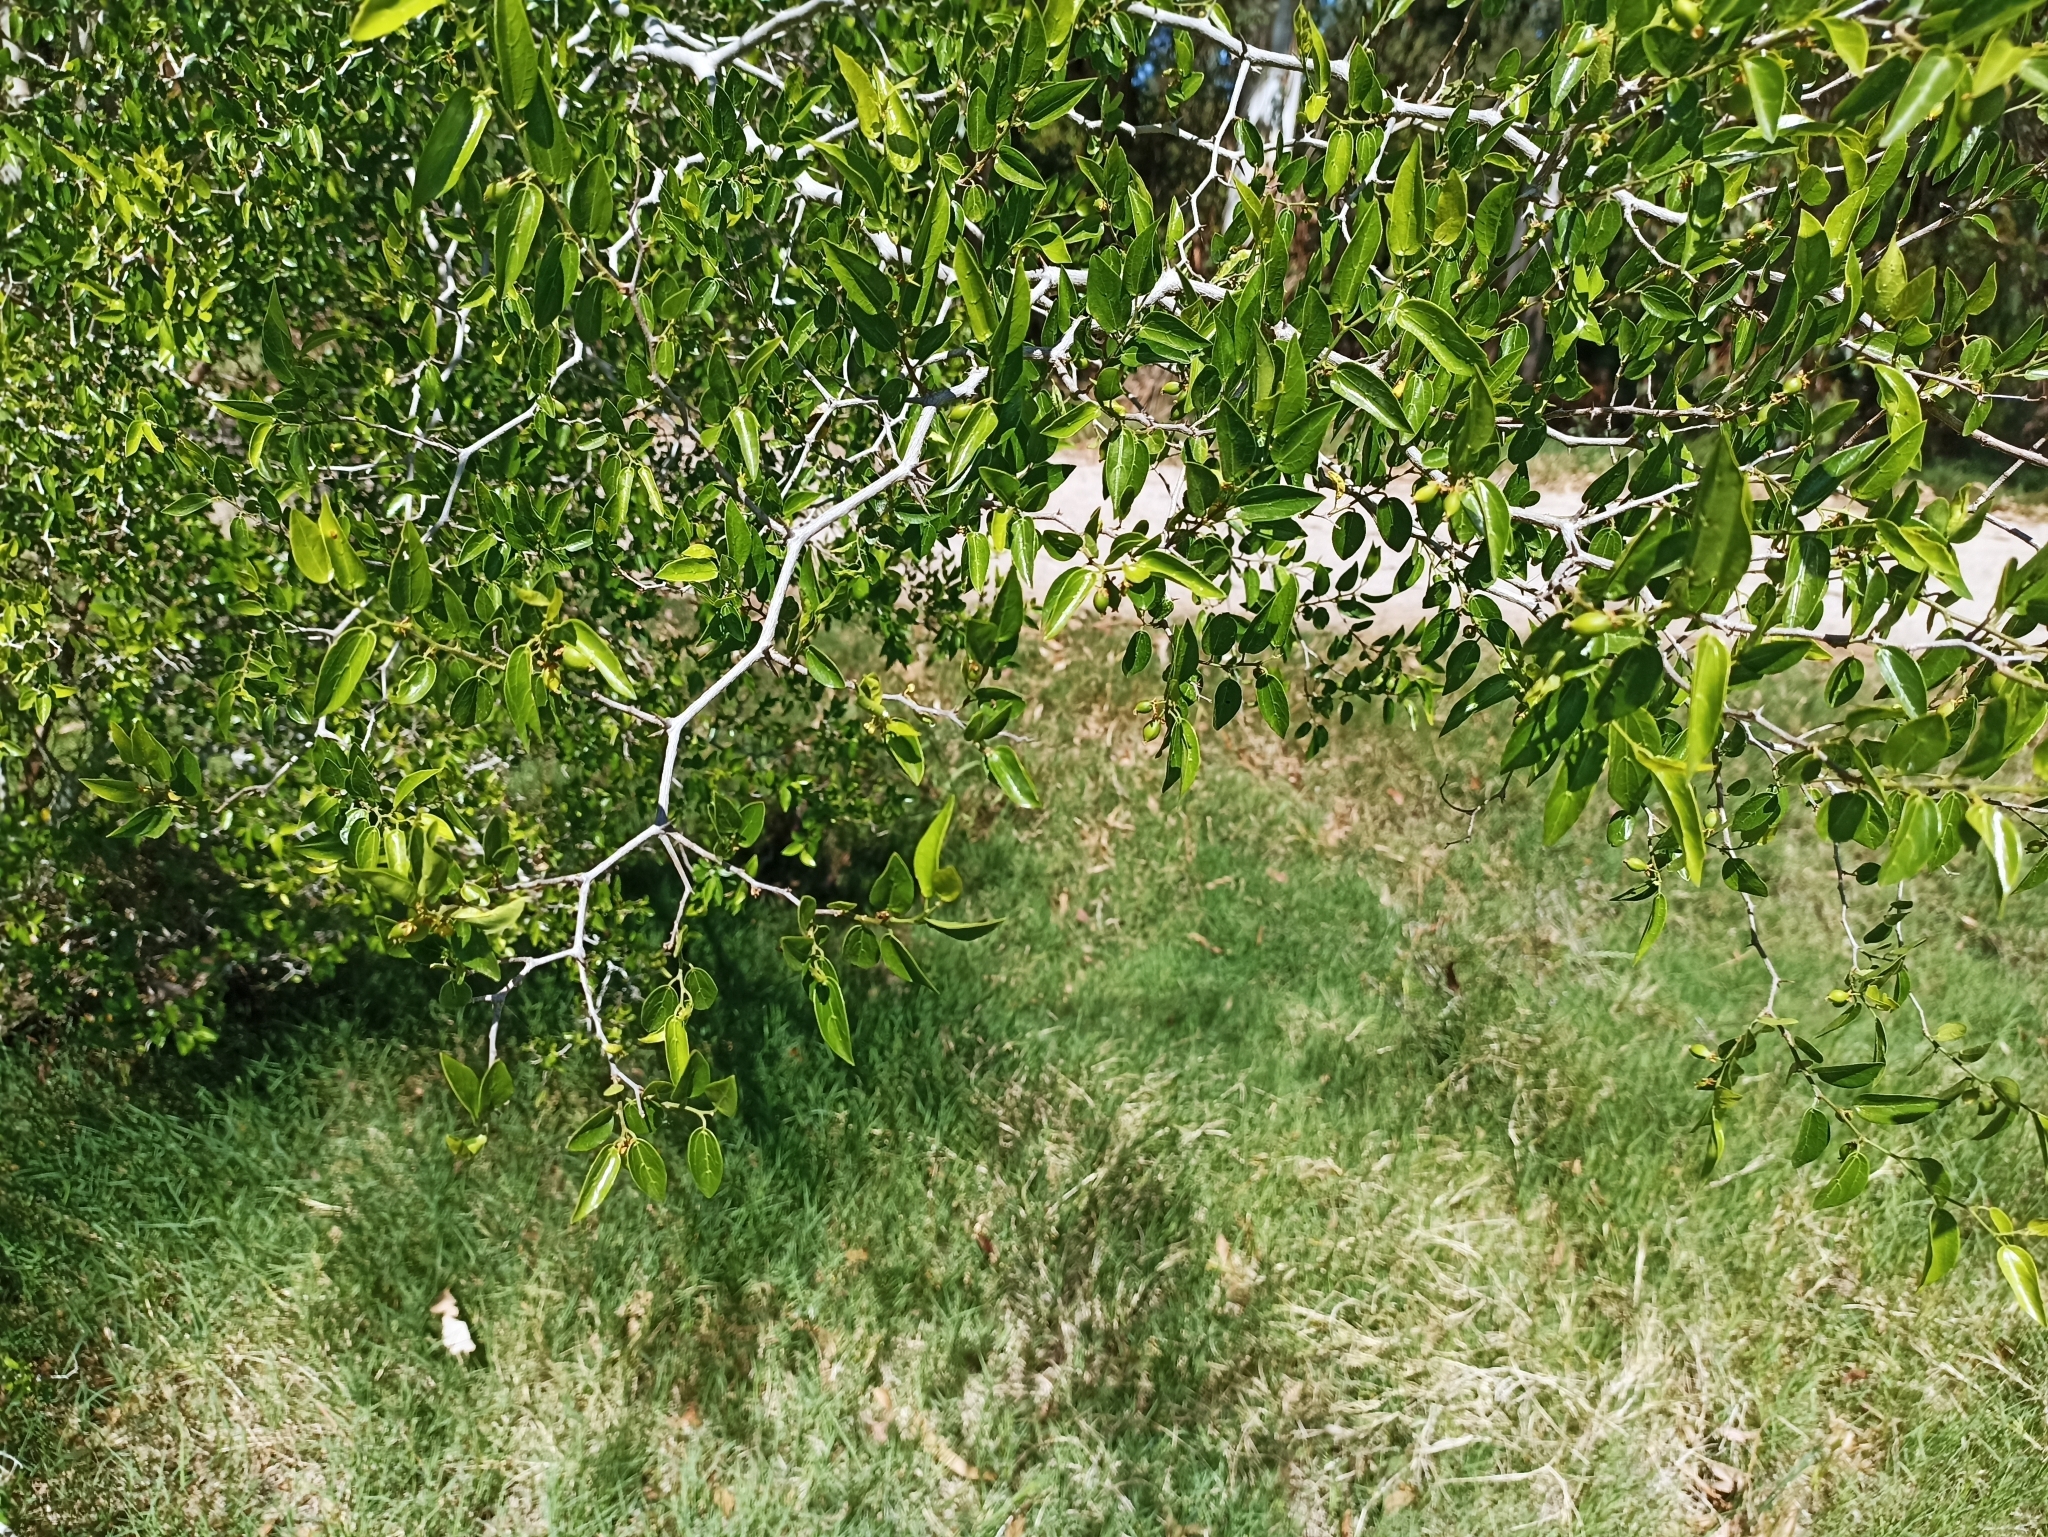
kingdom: Plantae
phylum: Tracheophyta
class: Magnoliopsida
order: Rosales
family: Cannabaceae
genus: Celtis
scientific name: Celtis tala
